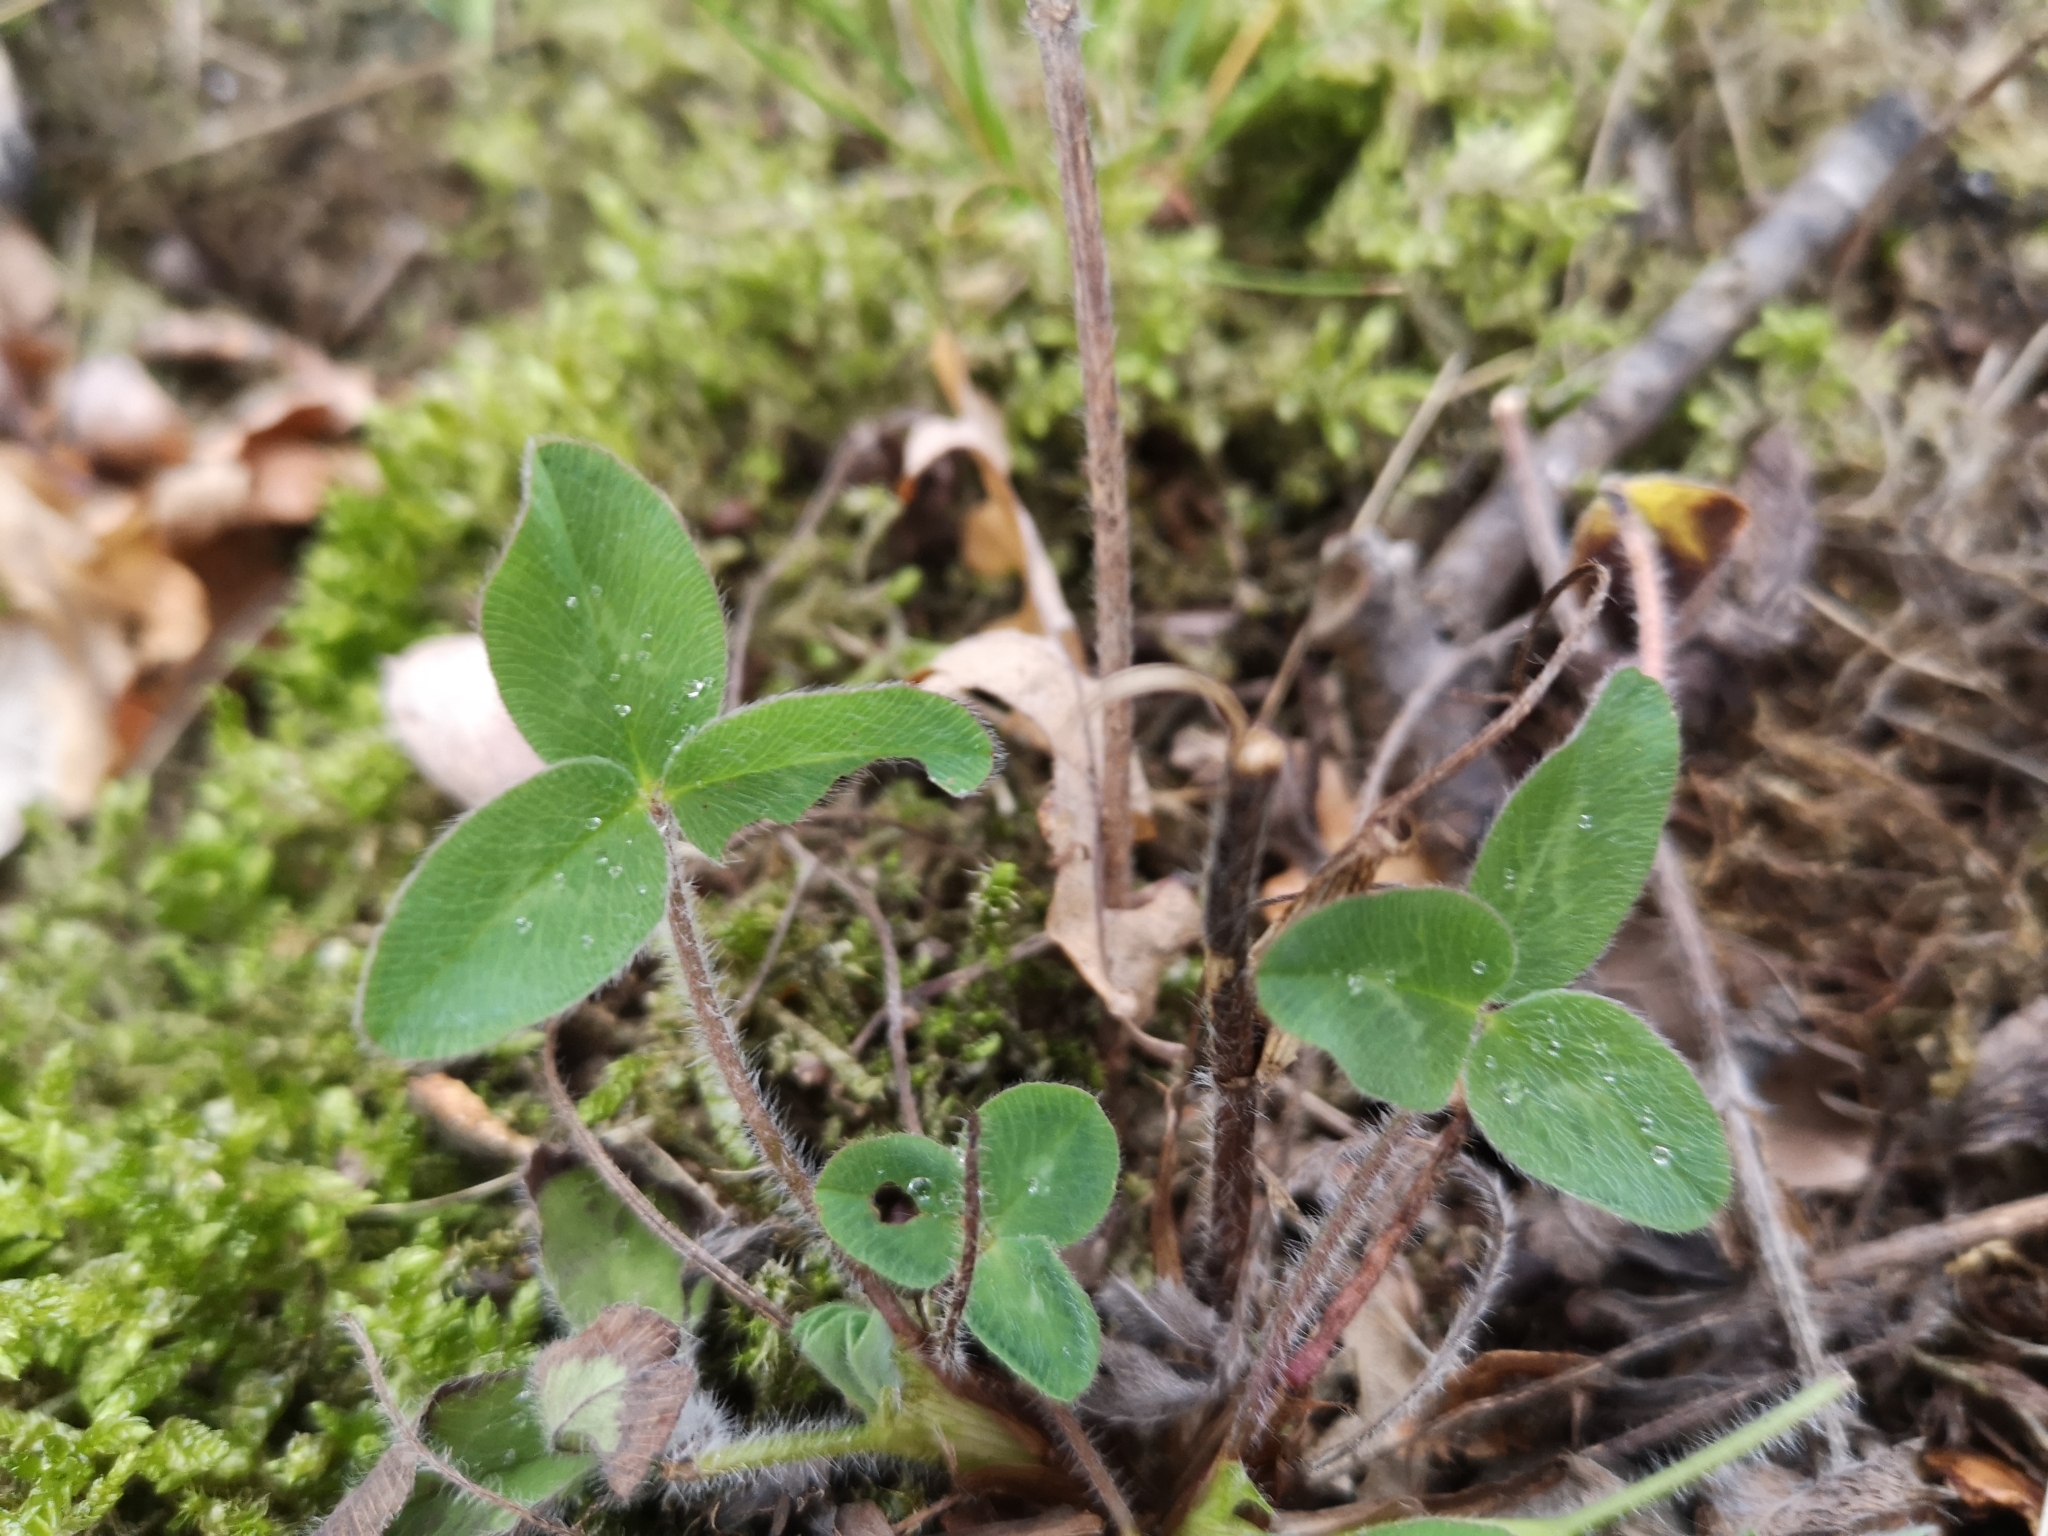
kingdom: Plantae
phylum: Tracheophyta
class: Magnoliopsida
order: Fabales
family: Fabaceae
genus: Trifolium
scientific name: Trifolium pratense
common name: Red clover
